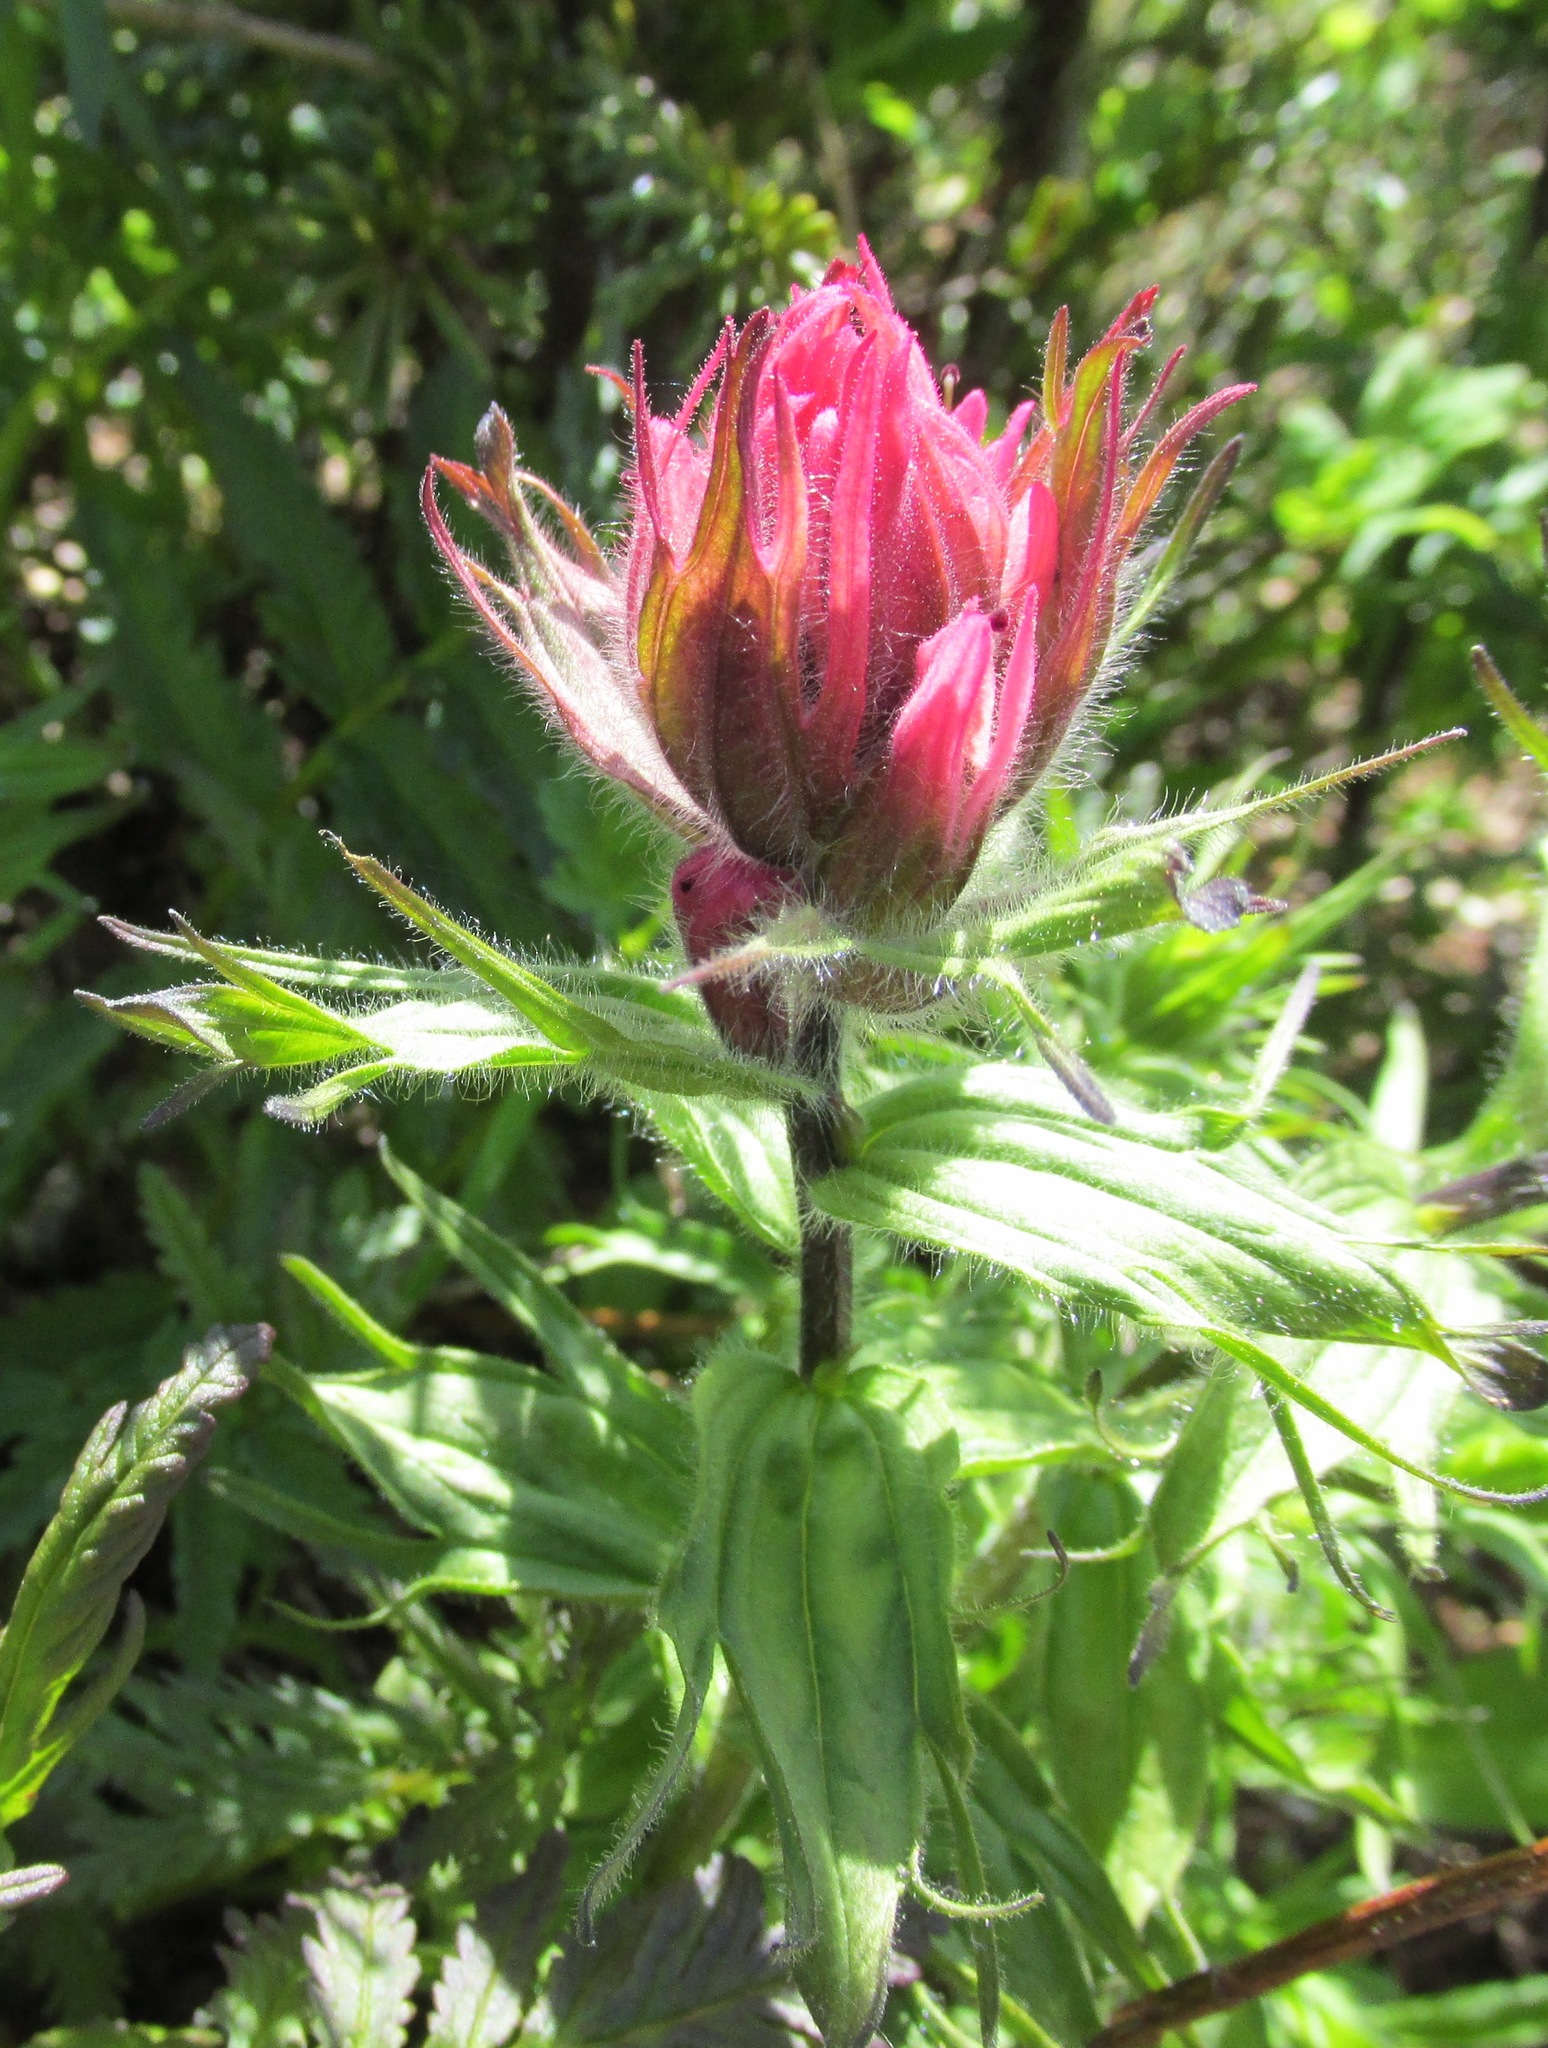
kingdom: Plantae
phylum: Tracheophyta
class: Magnoliopsida
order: Lamiales
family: Orobanchaceae
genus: Castilleja
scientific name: Castilleja parviflora
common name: Mountain paintbrush
